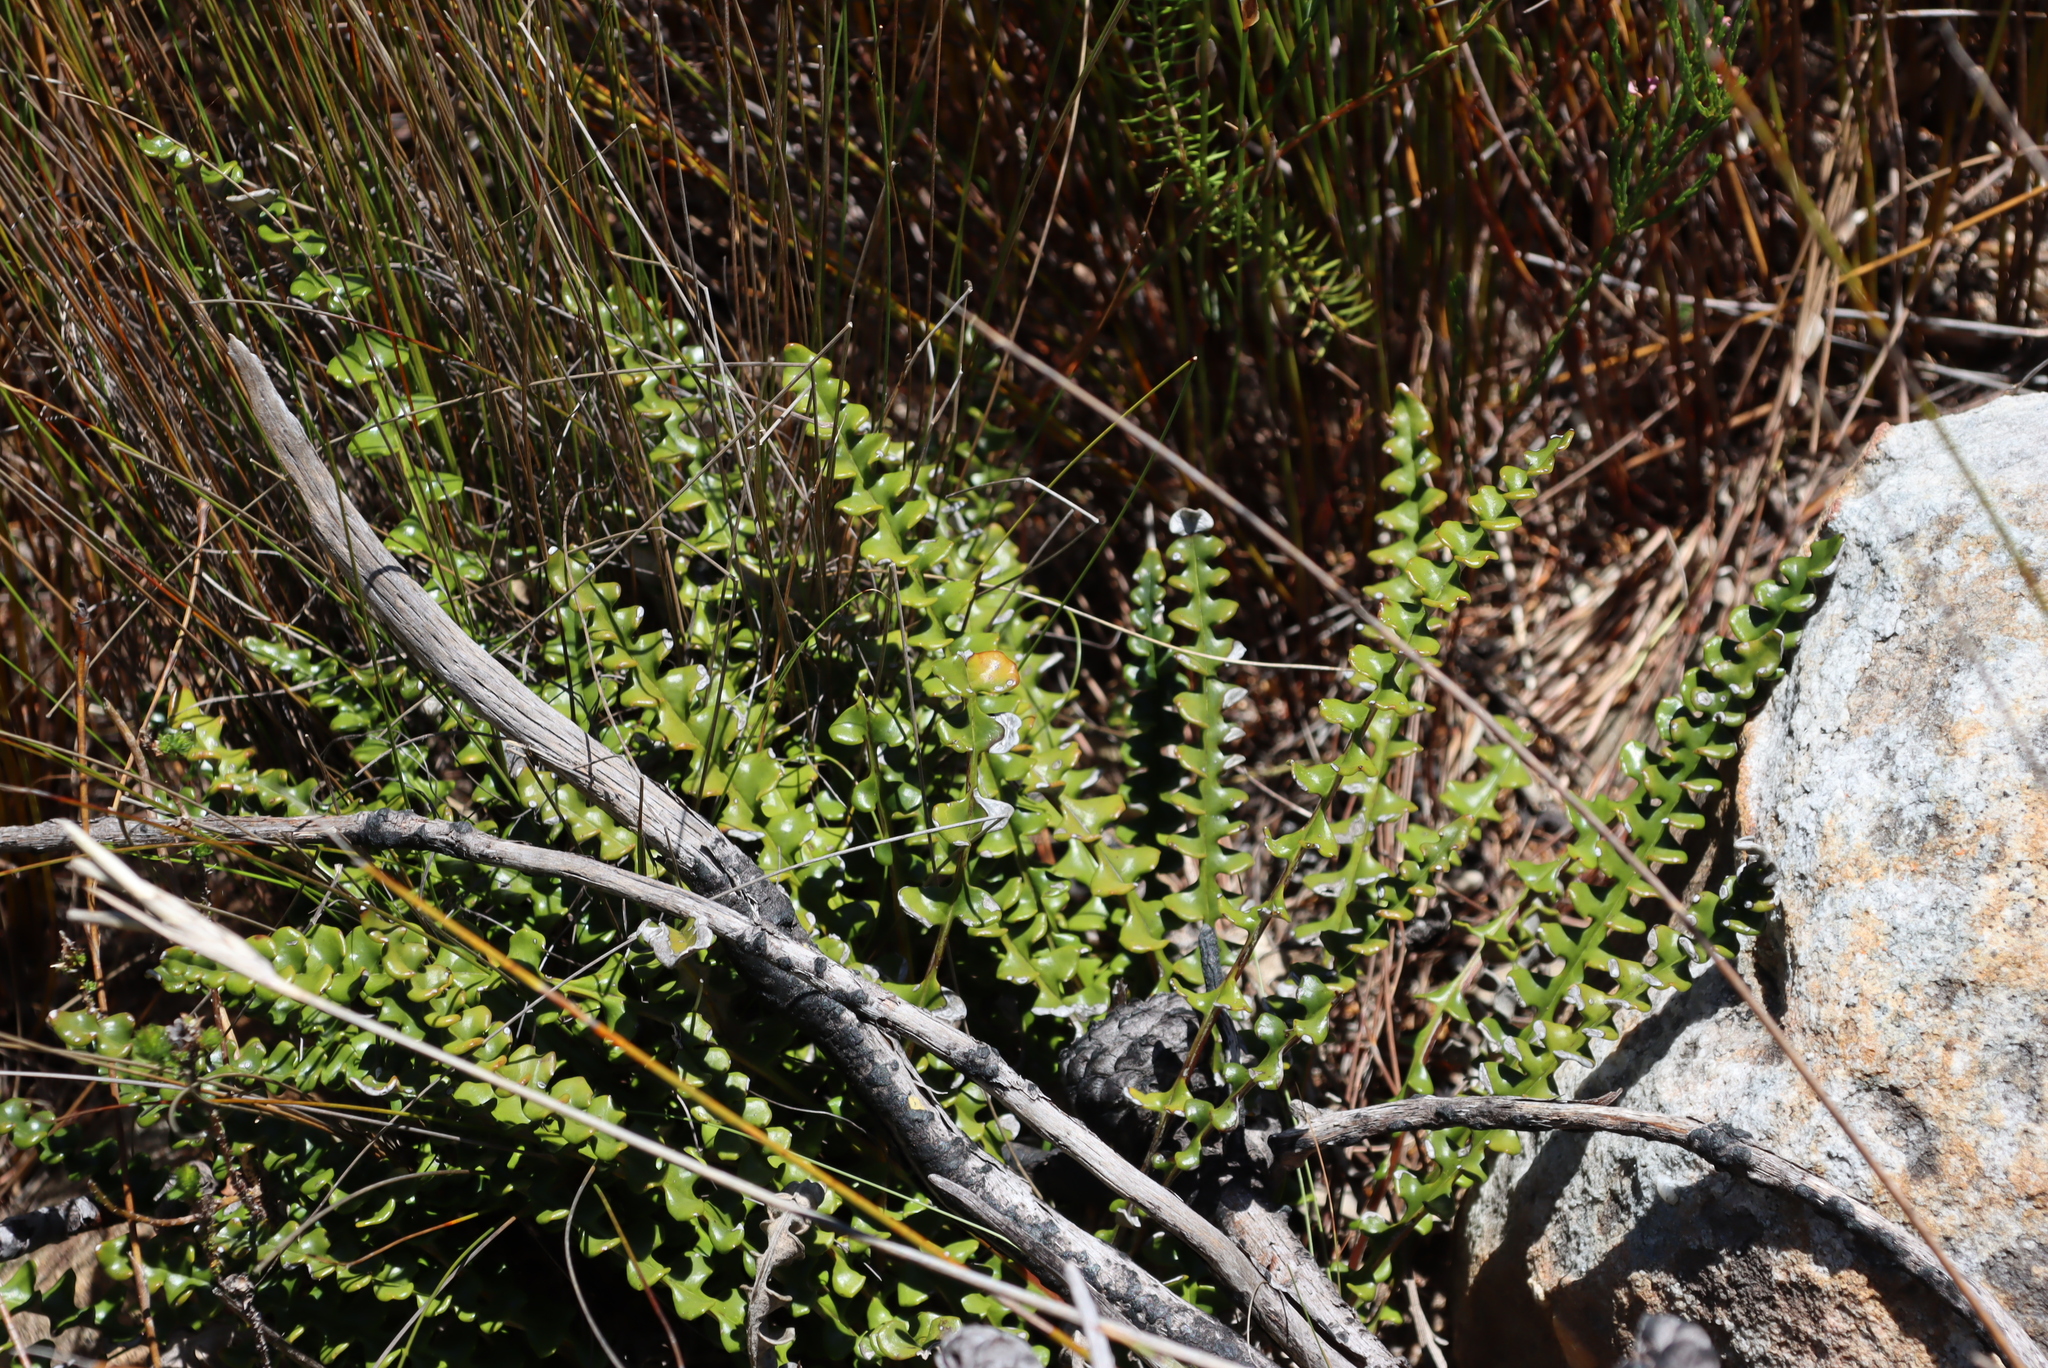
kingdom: Plantae
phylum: Tracheophyta
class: Magnoliopsida
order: Asterales
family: Asteraceae
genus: Gerbera
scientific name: Gerbera linnaei
